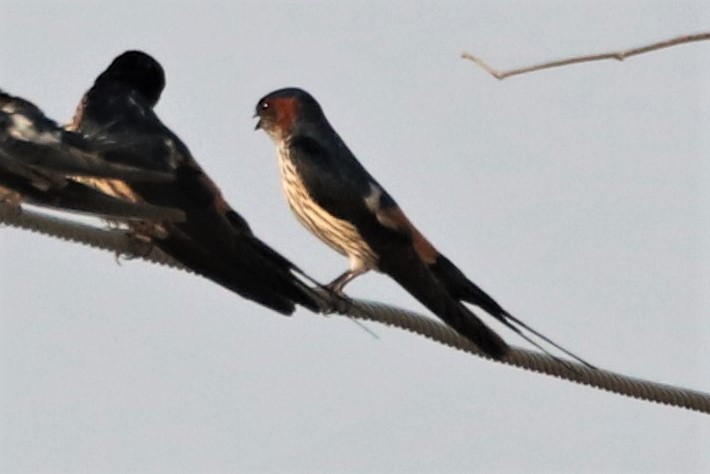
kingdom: Animalia
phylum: Chordata
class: Aves
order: Passeriformes
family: Hirundinidae
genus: Cecropis
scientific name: Cecropis striolata
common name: Striated swallow
